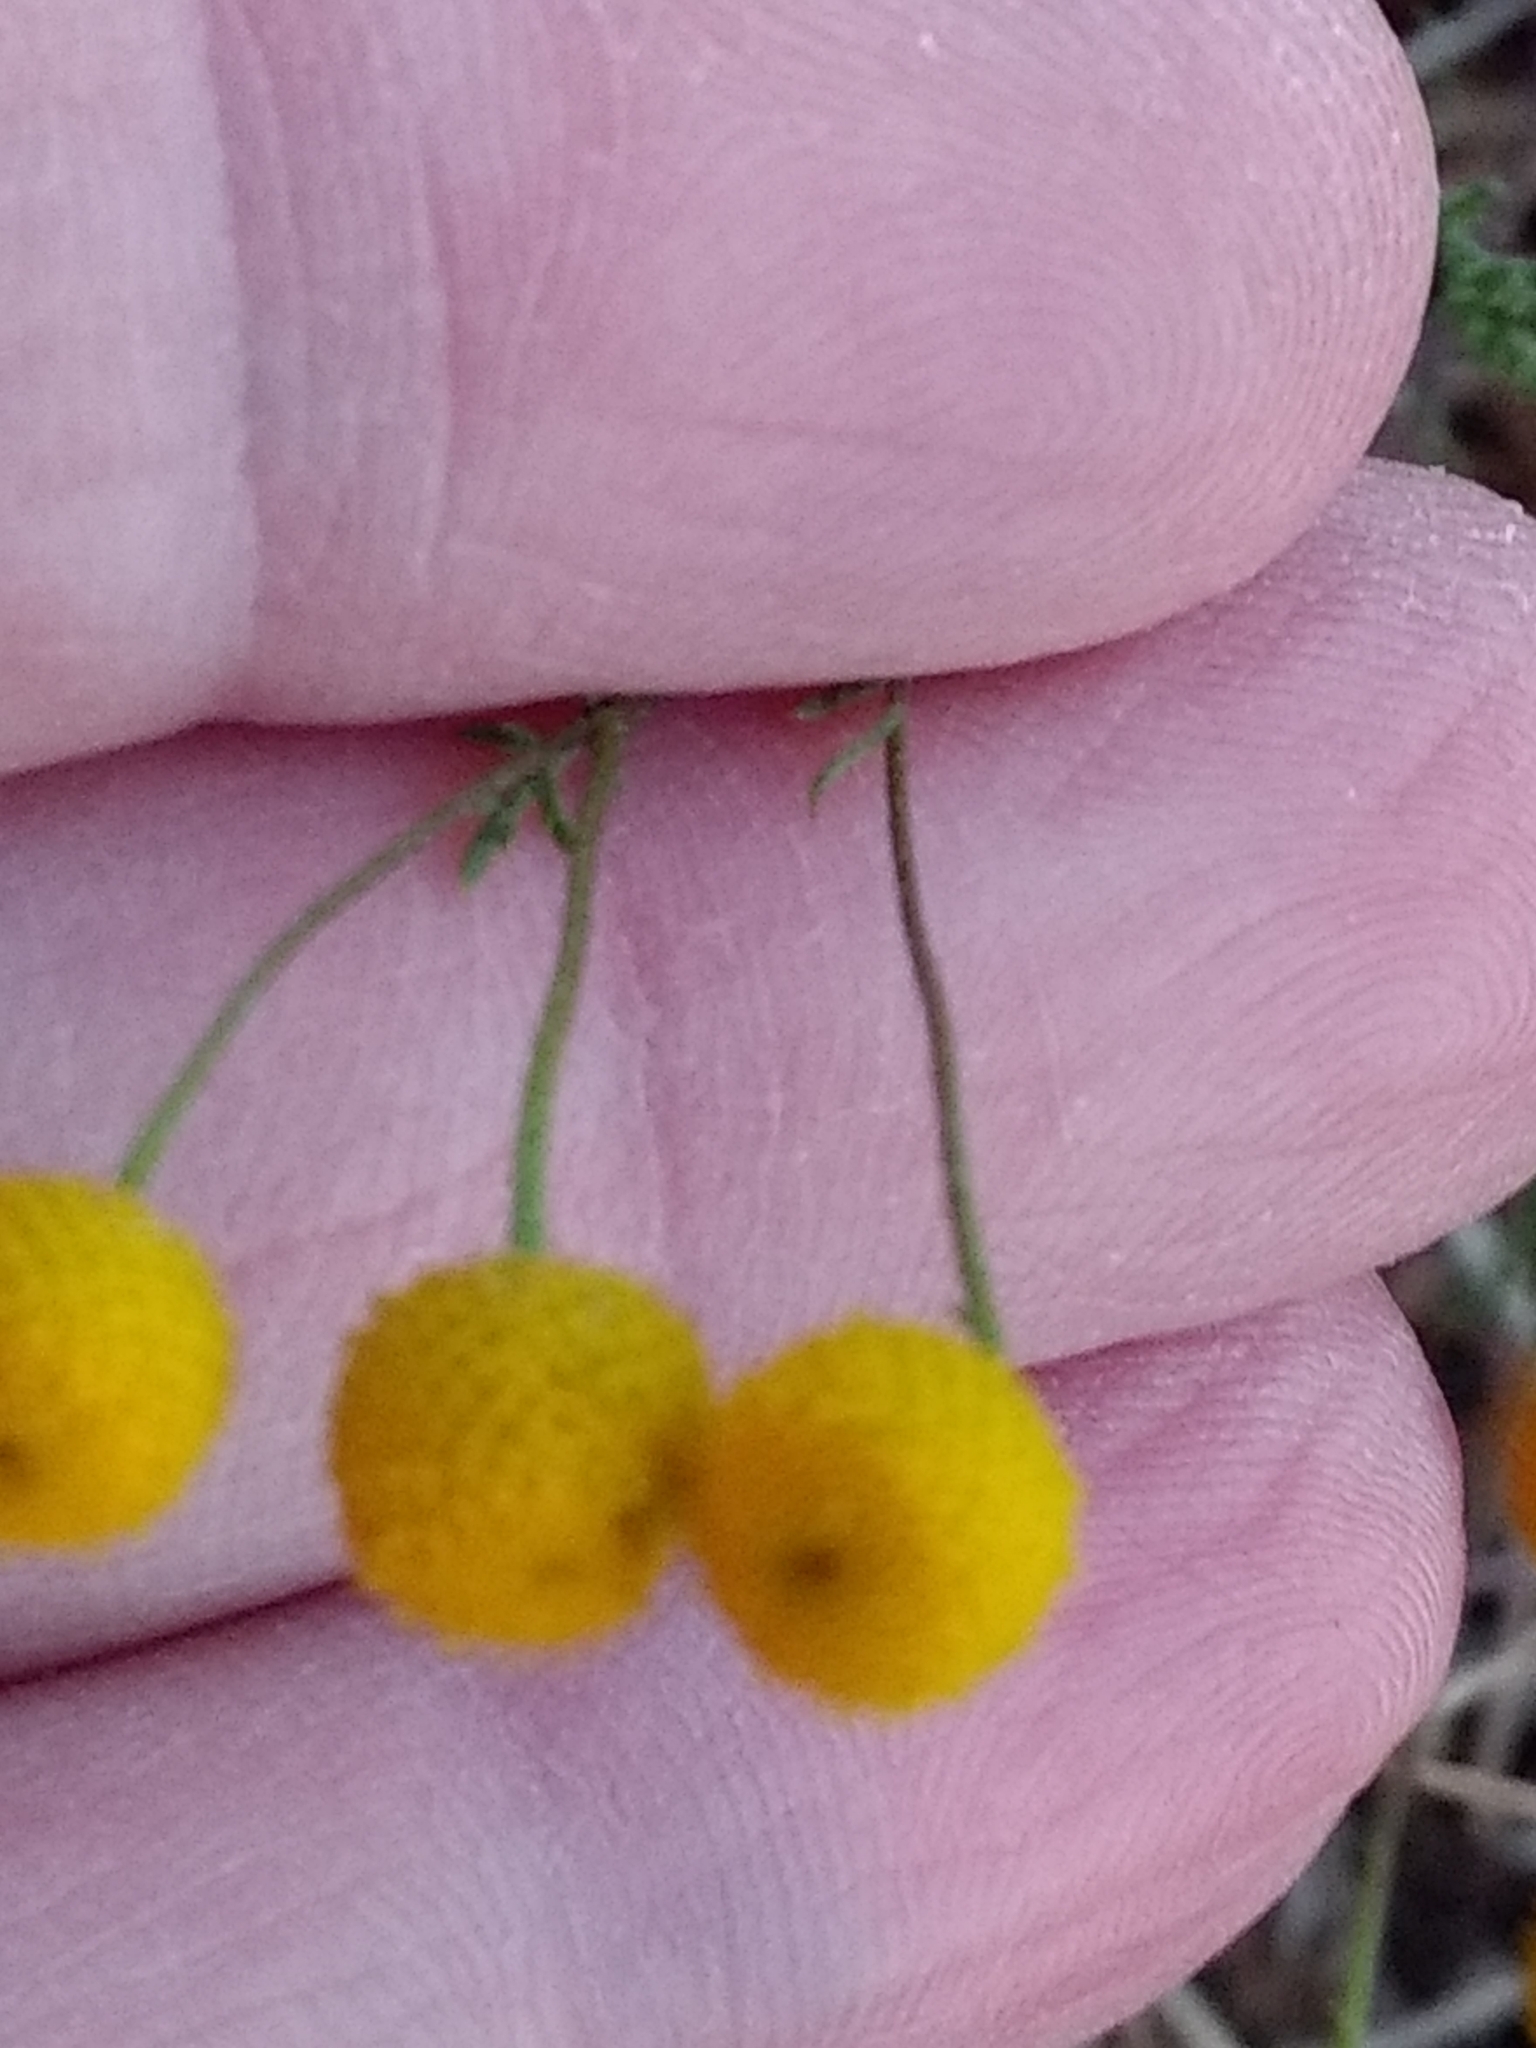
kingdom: Plantae
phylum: Tracheophyta
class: Magnoliopsida
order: Asterales
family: Asteraceae
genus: Oncosiphon
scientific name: Oncosiphon pilulifer
